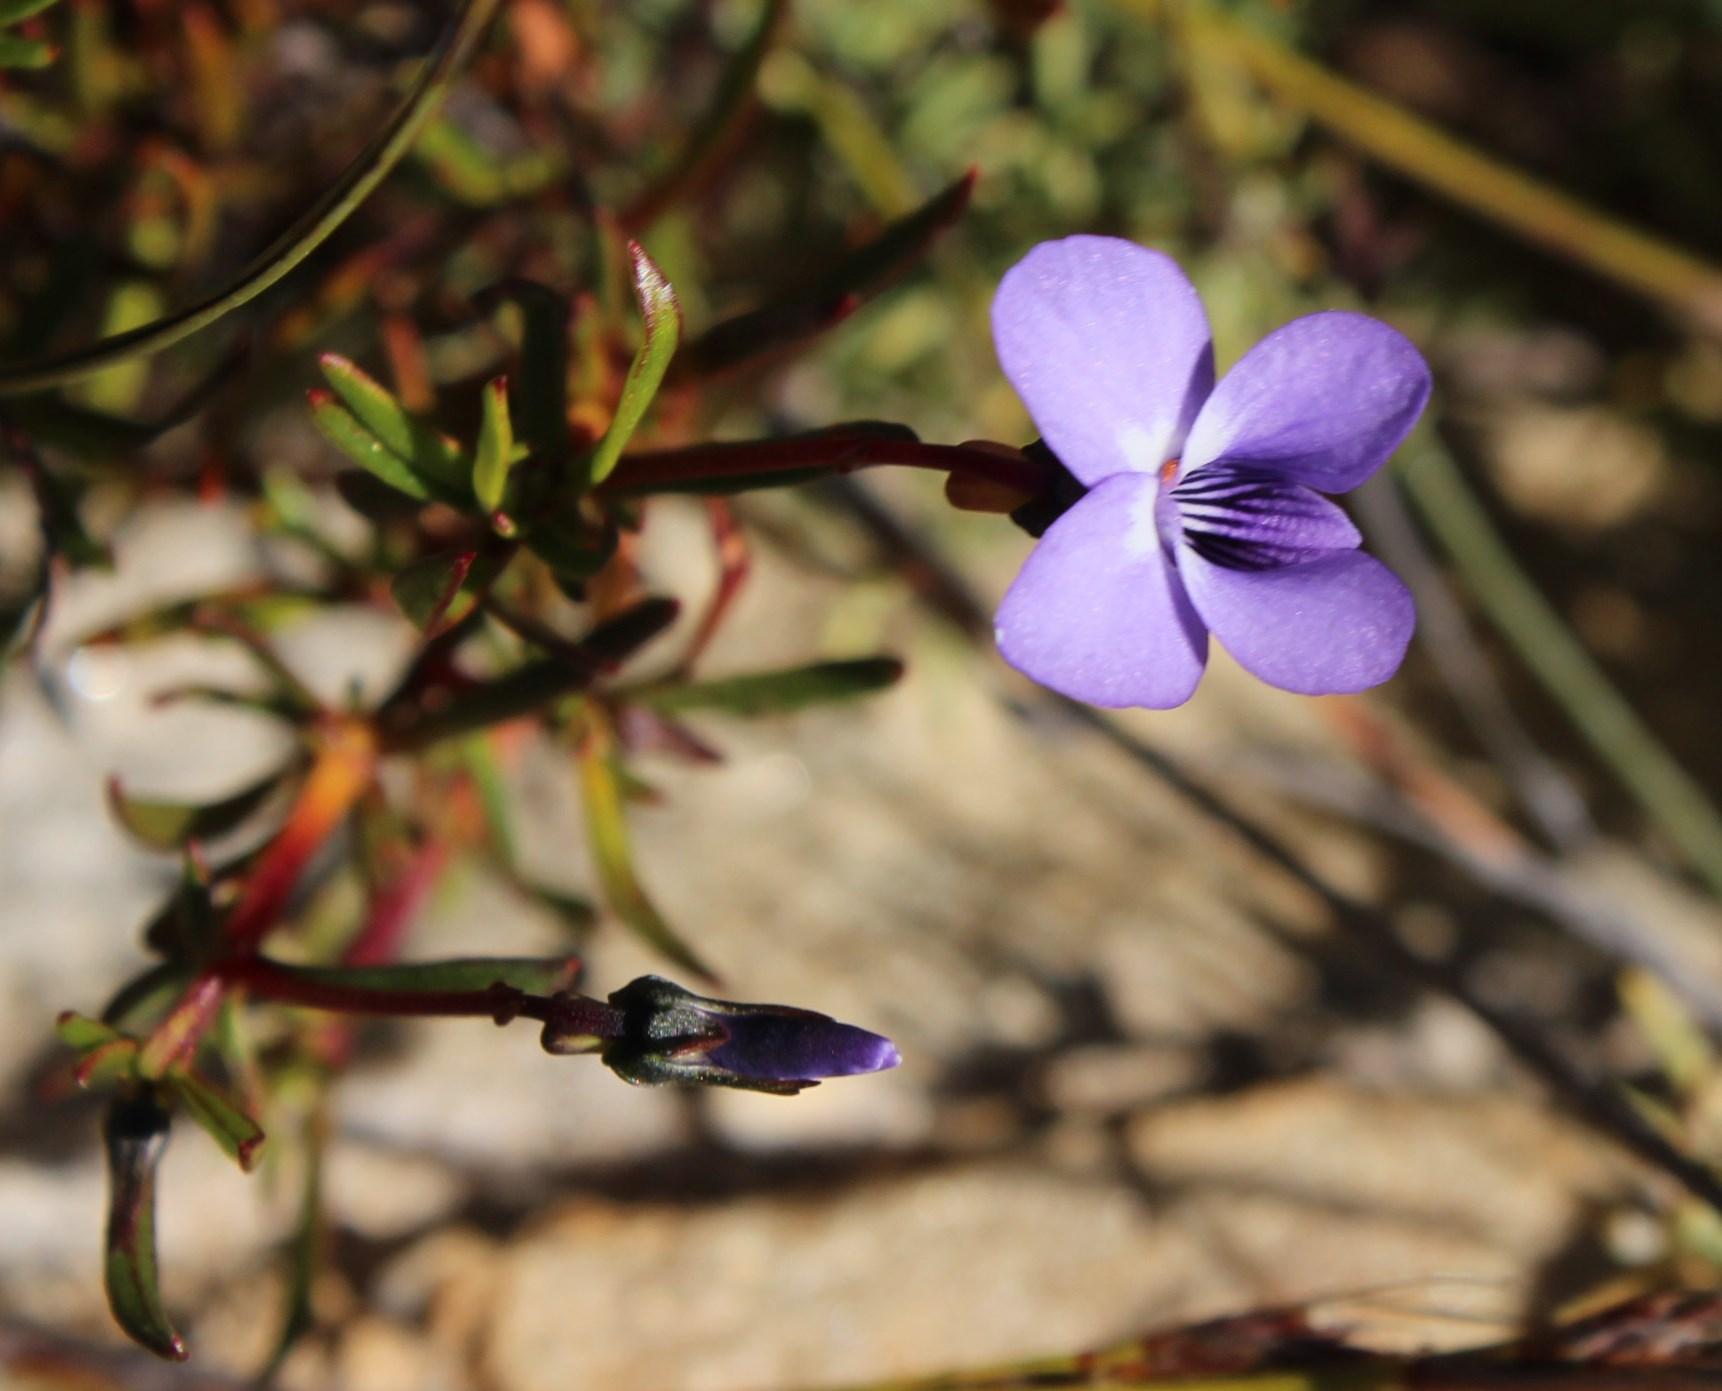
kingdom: Plantae
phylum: Tracheophyta
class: Magnoliopsida
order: Malpighiales
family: Violaceae
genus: Viola
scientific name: Viola decumbens
